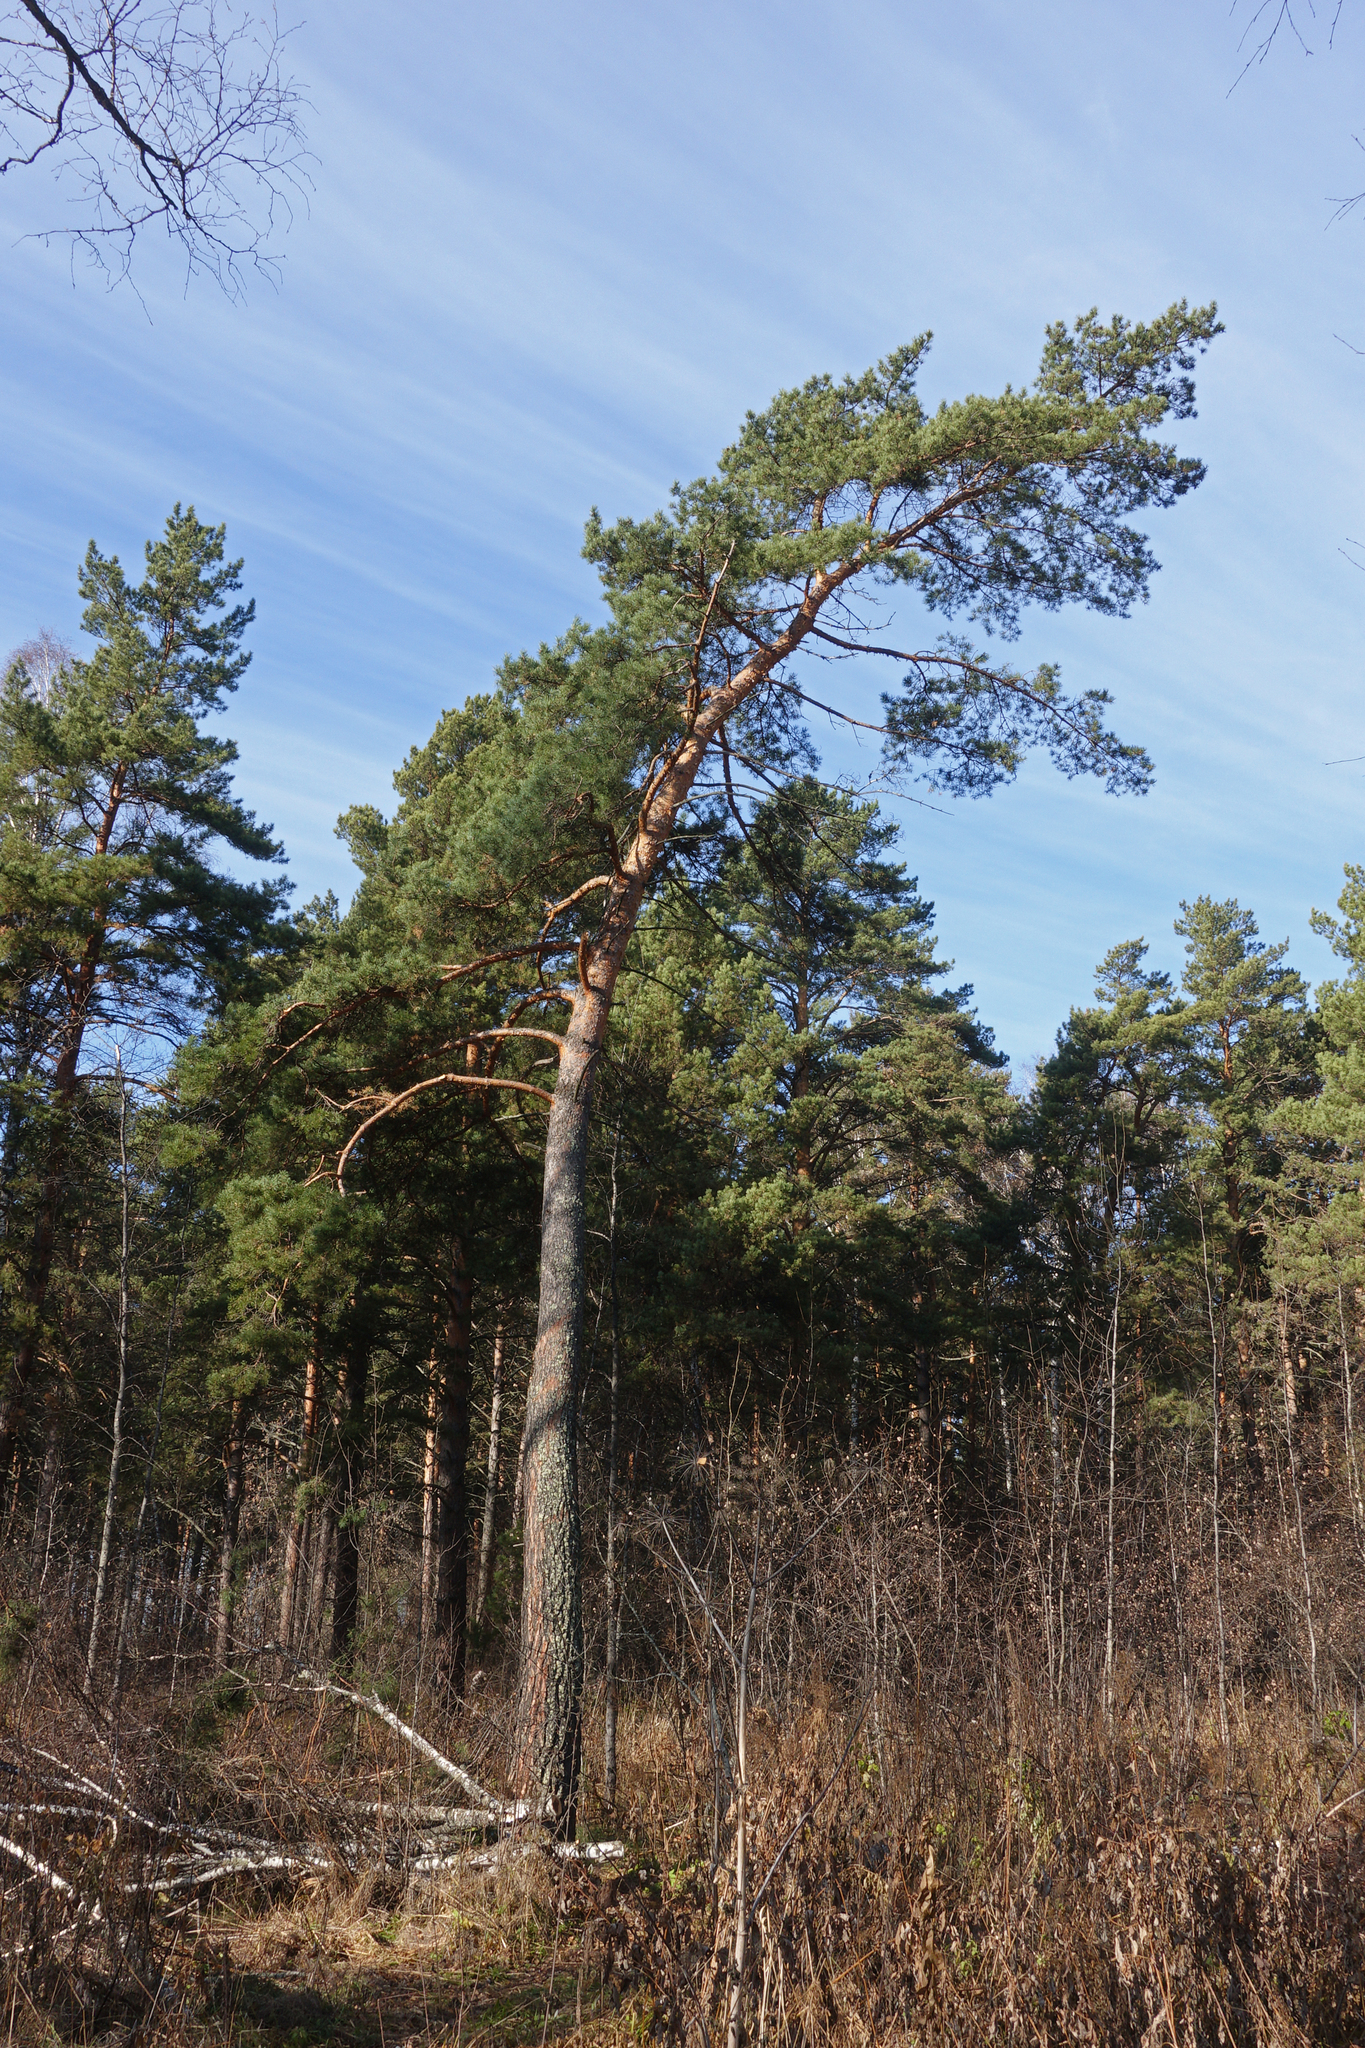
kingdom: Plantae
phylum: Tracheophyta
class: Pinopsida
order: Pinales
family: Pinaceae
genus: Pinus
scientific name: Pinus sylvestris
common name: Scots pine
